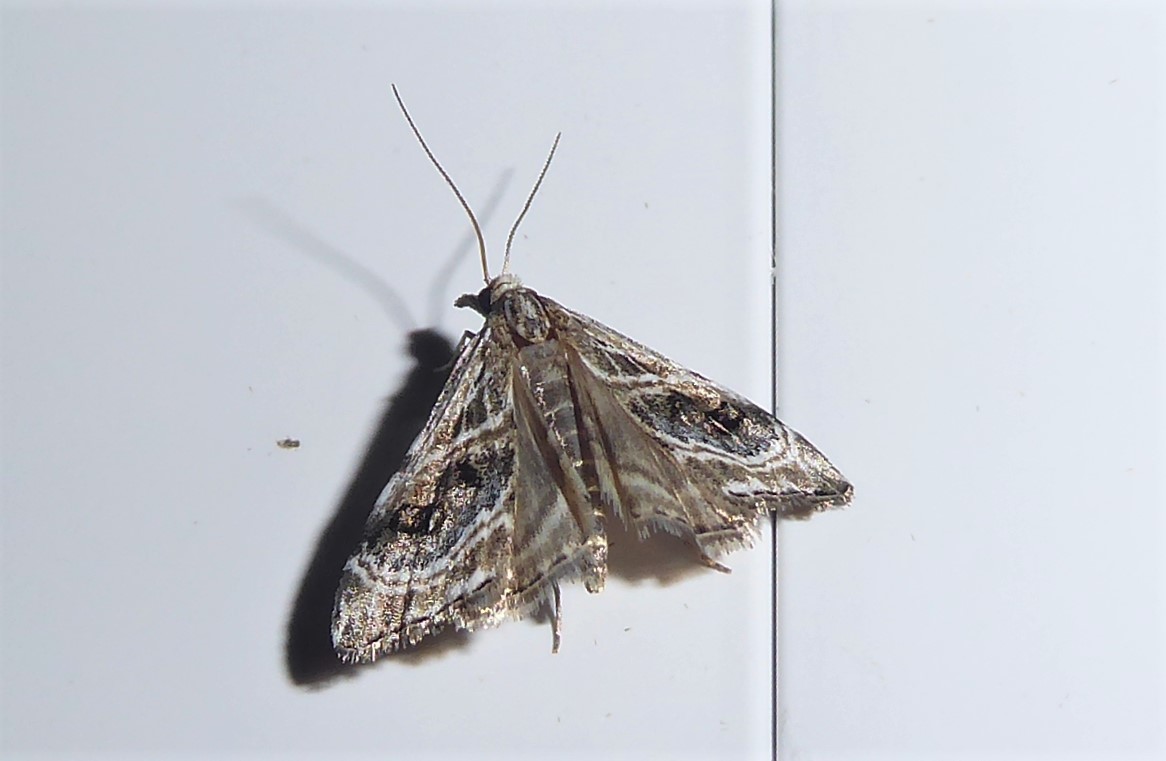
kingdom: Animalia
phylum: Arthropoda
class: Insecta
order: Lepidoptera
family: Crambidae
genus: Gadira
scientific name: Gadira acerella
